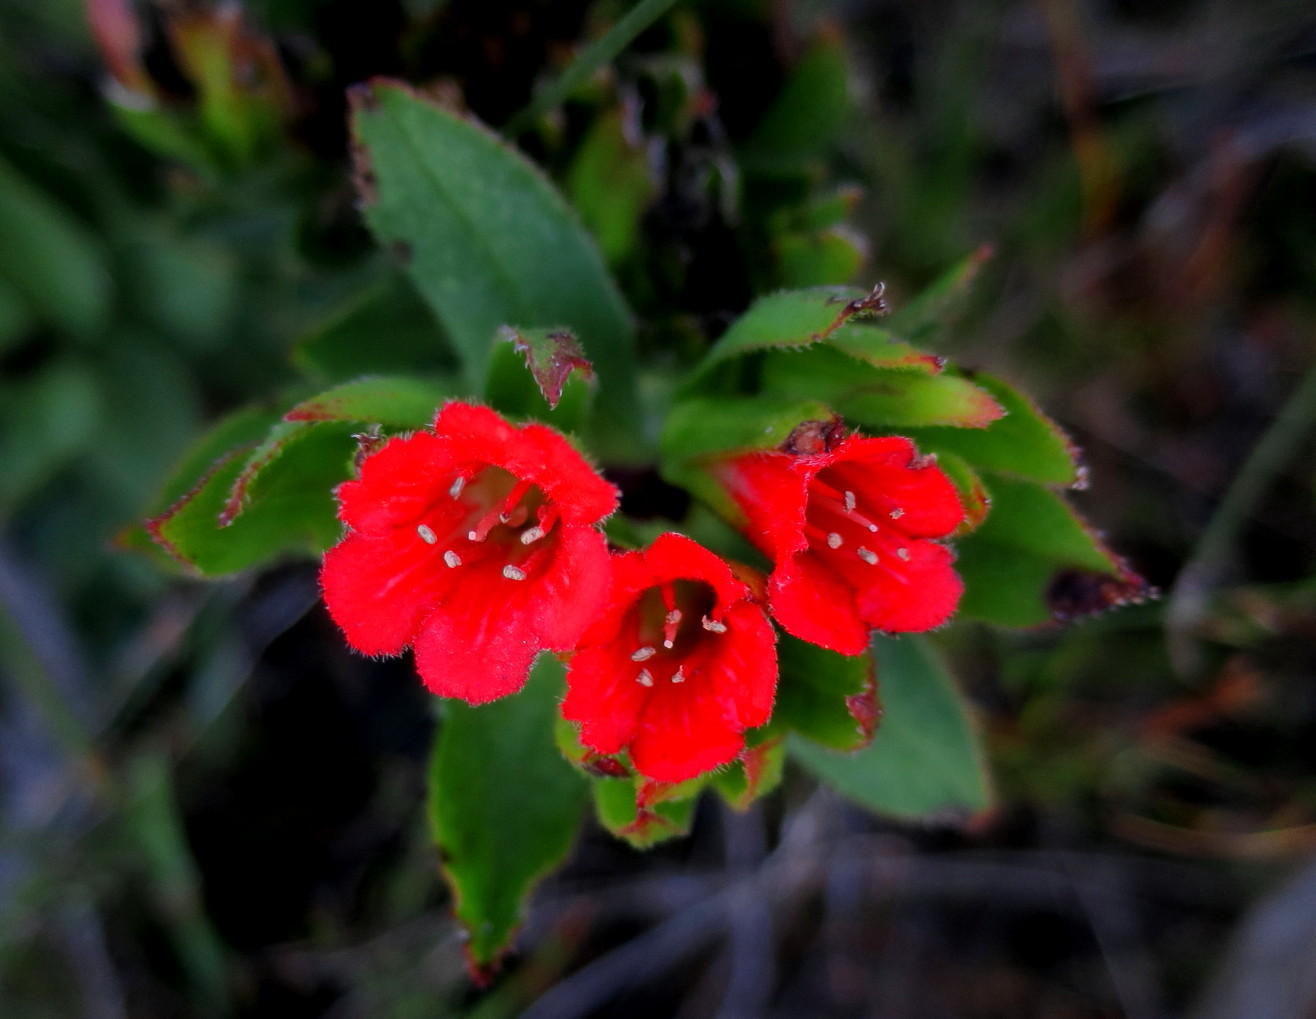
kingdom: Plantae
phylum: Tracheophyta
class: Magnoliopsida
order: Boraginales
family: Boraginaceae
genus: Lobostemon
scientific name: Lobostemon sanguineus
